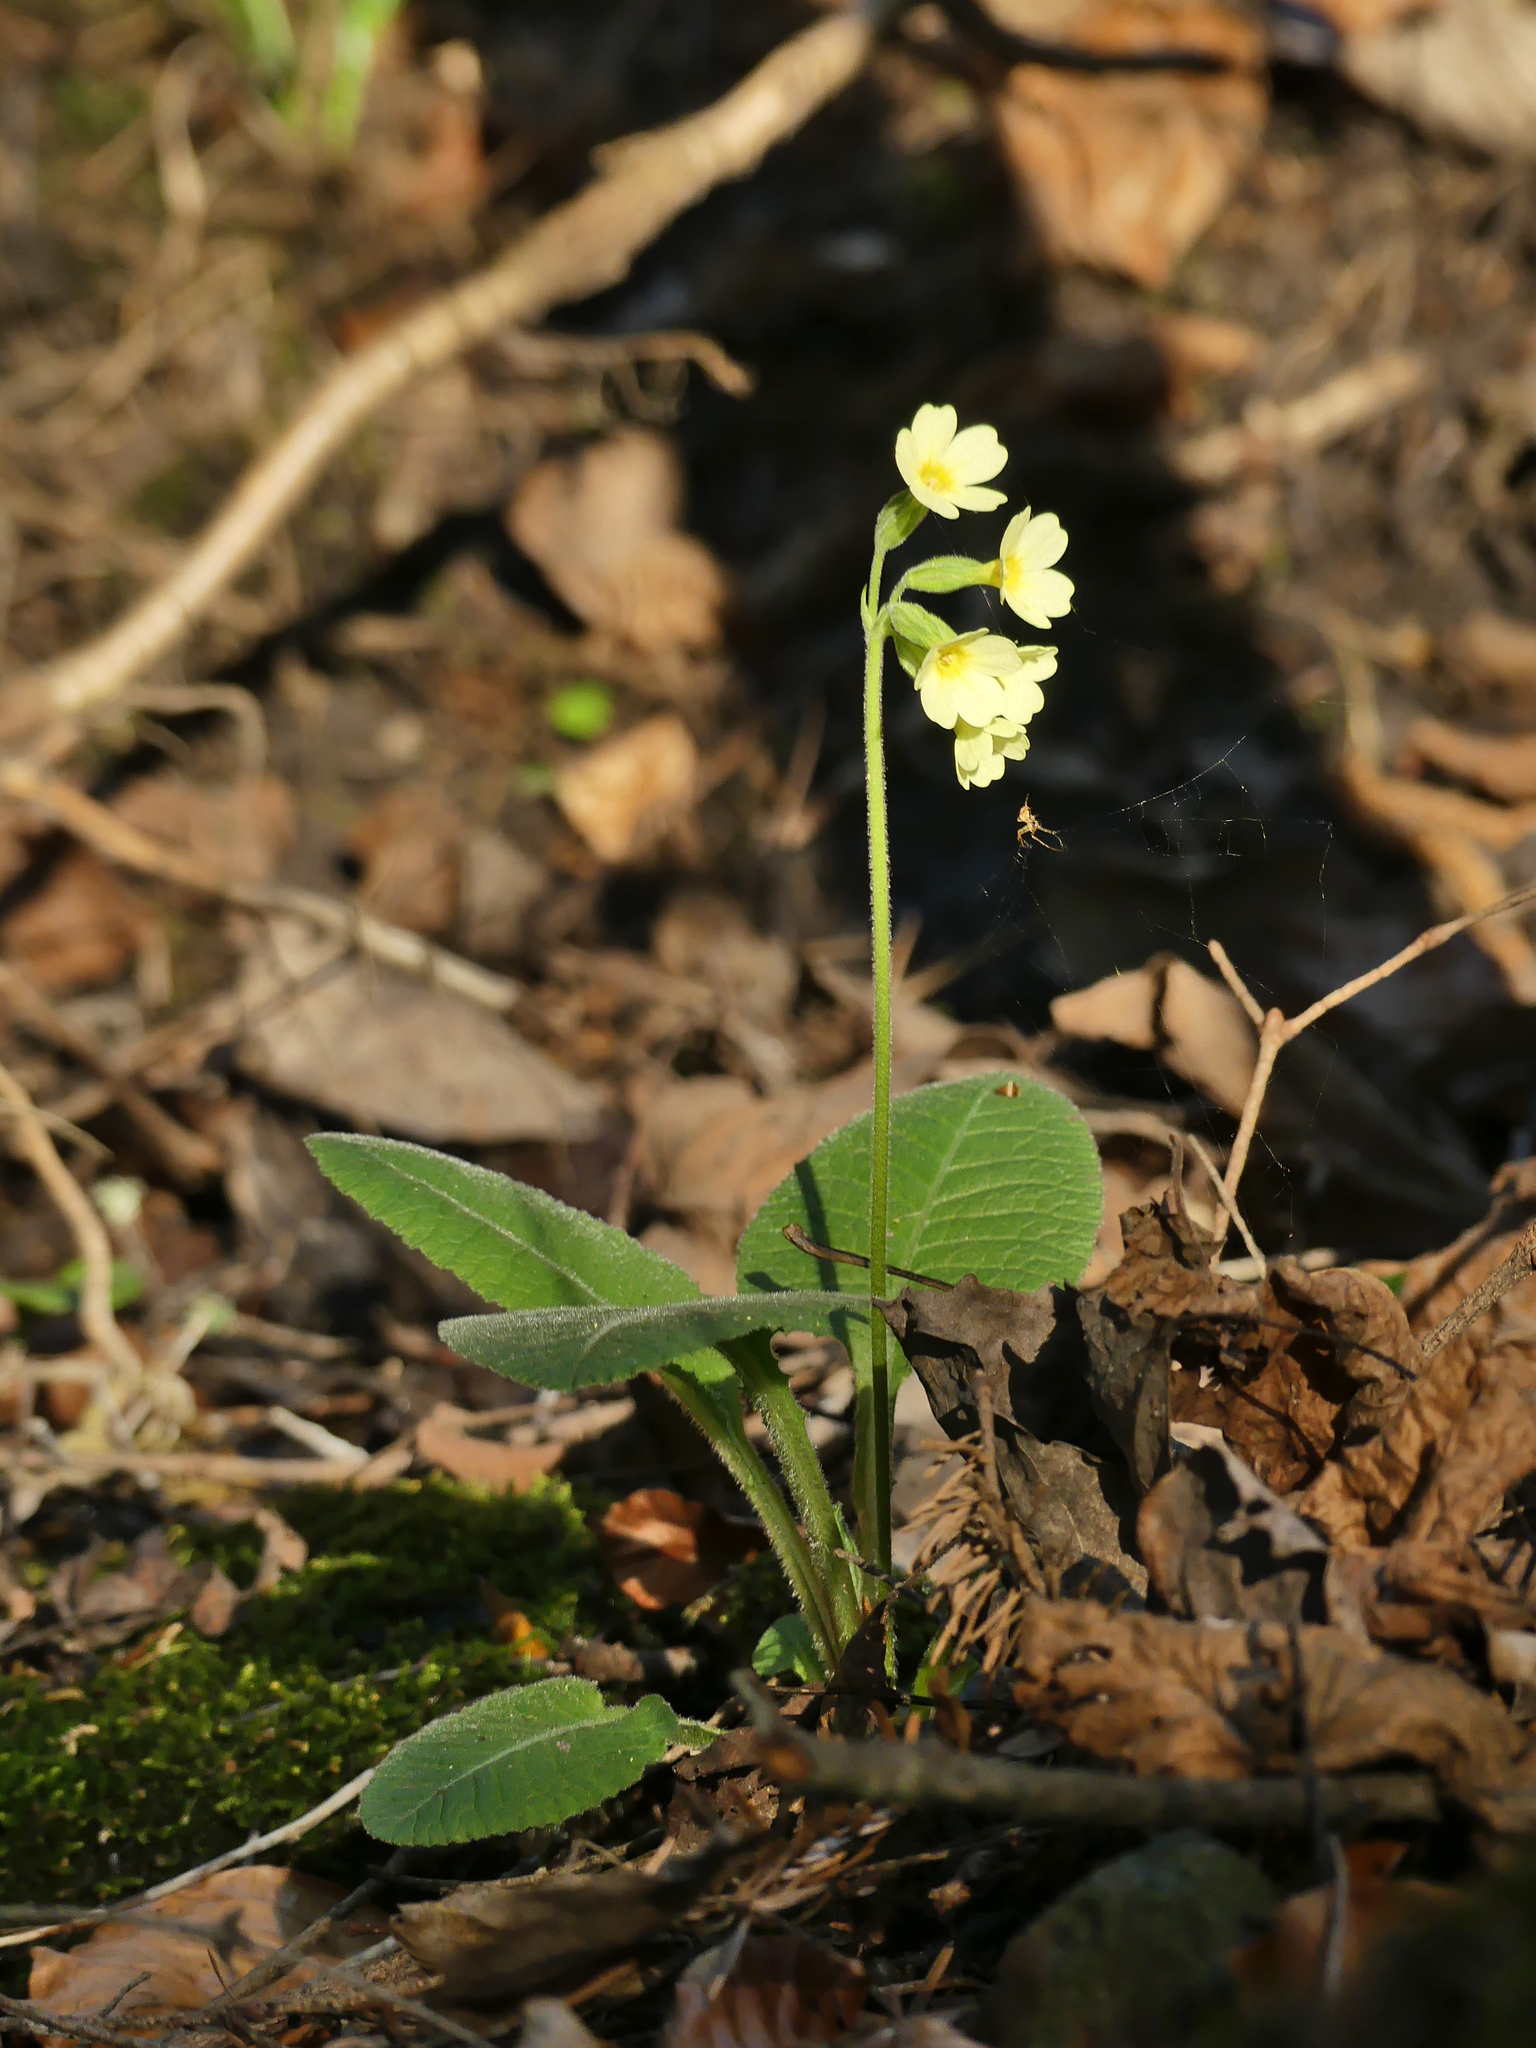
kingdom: Plantae
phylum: Tracheophyta
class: Magnoliopsida
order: Ericales
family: Primulaceae
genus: Primula
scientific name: Primula elatior
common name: Oxlip
